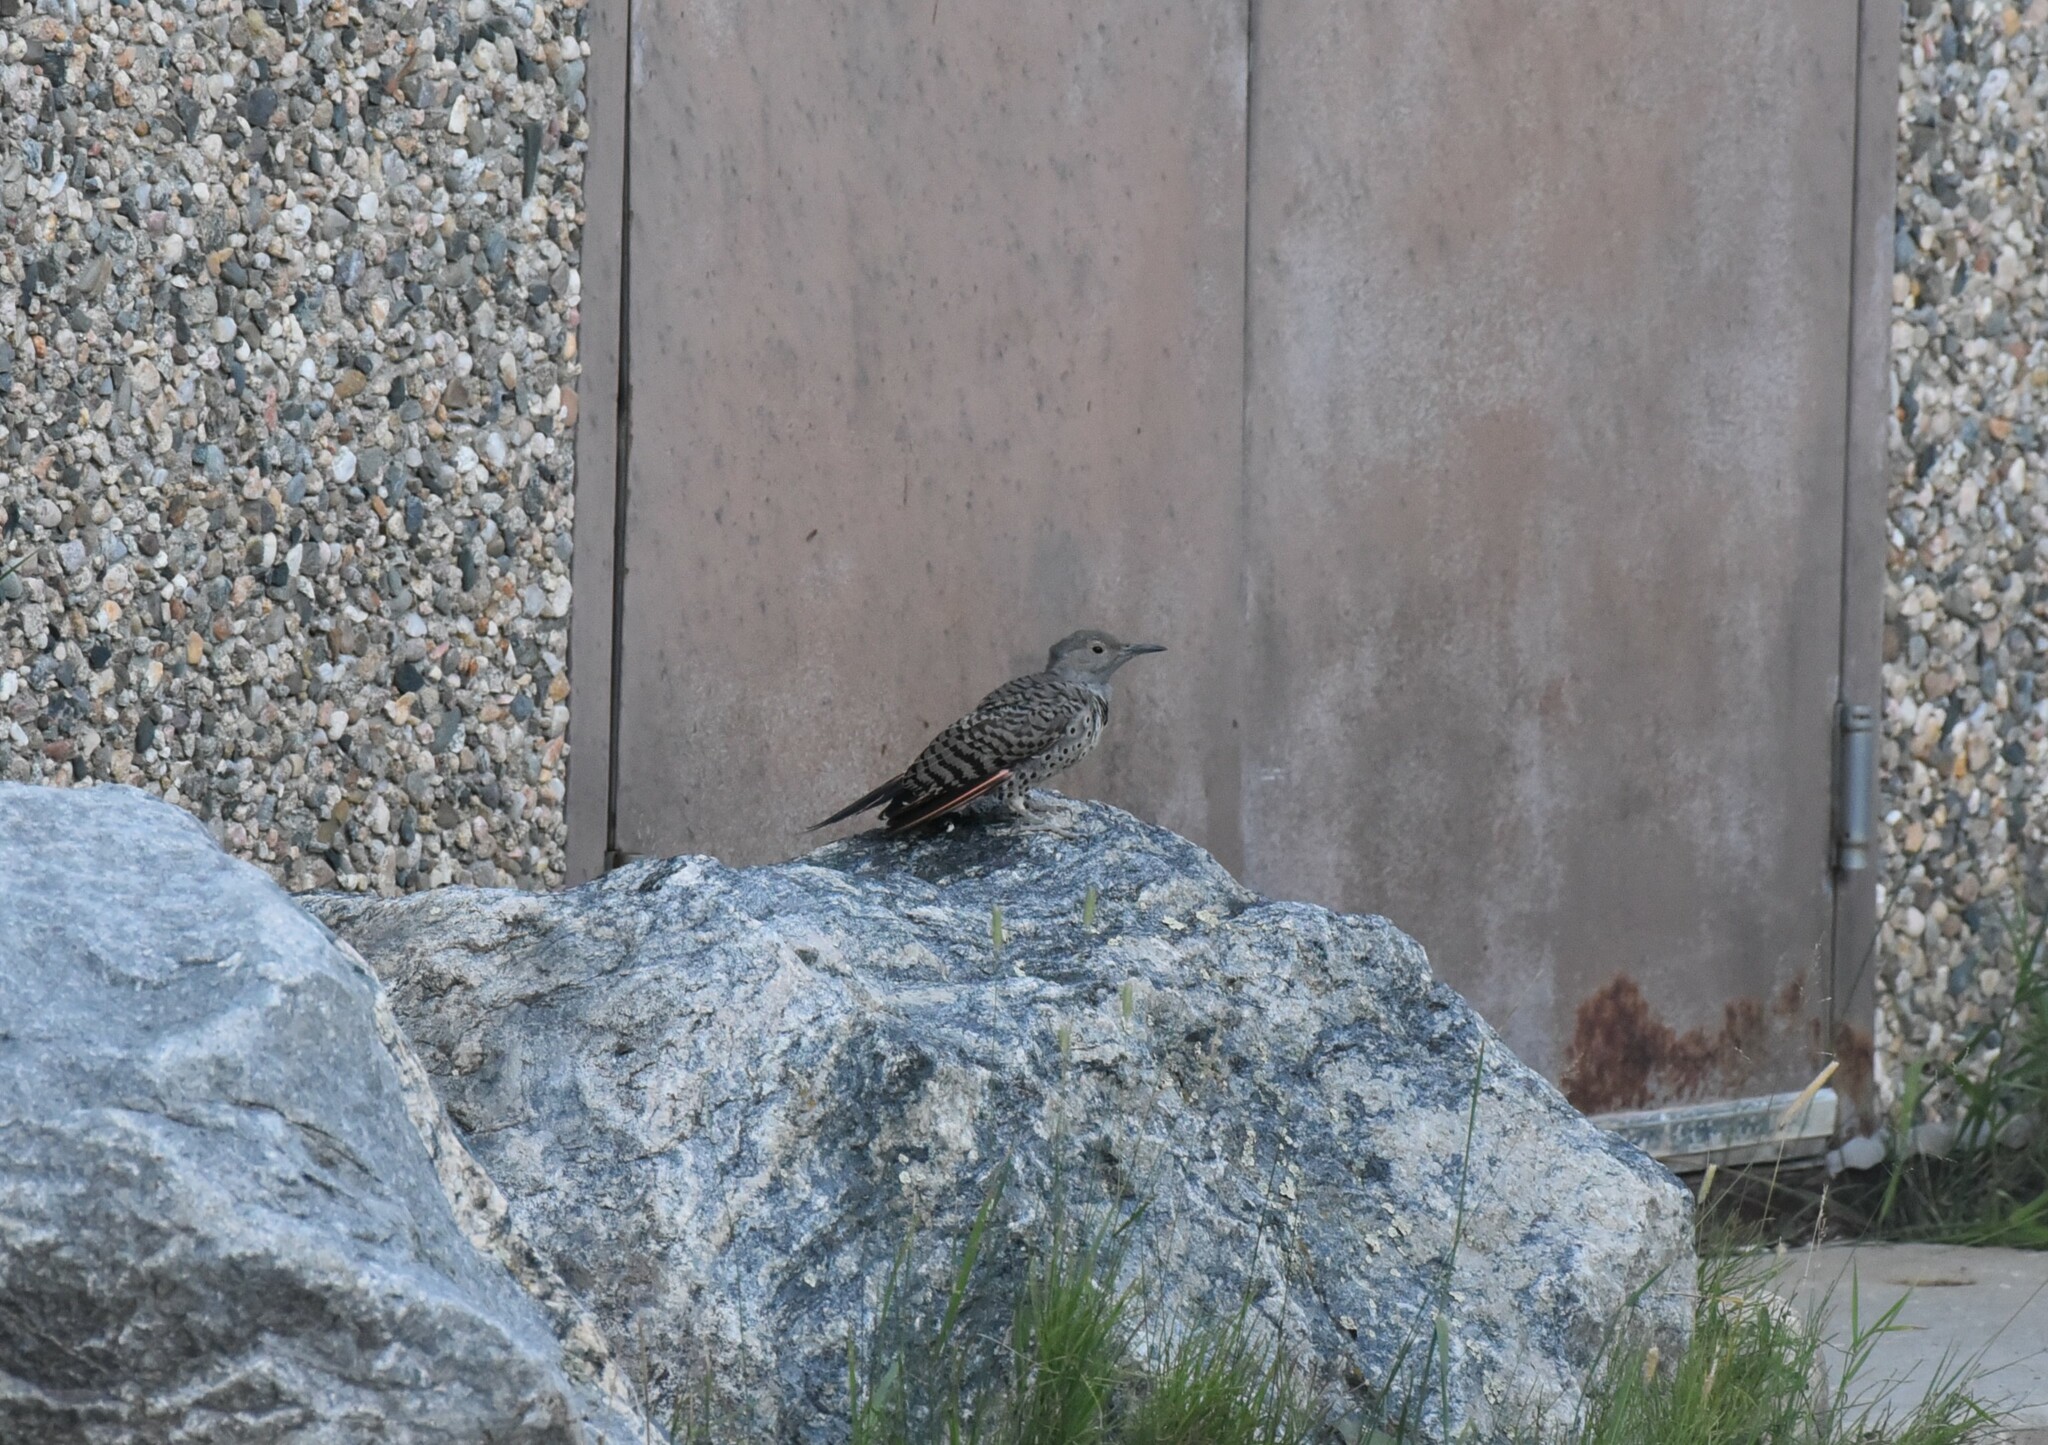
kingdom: Animalia
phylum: Chordata
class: Aves
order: Piciformes
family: Picidae
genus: Colaptes
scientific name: Colaptes auratus
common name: Northern flicker
